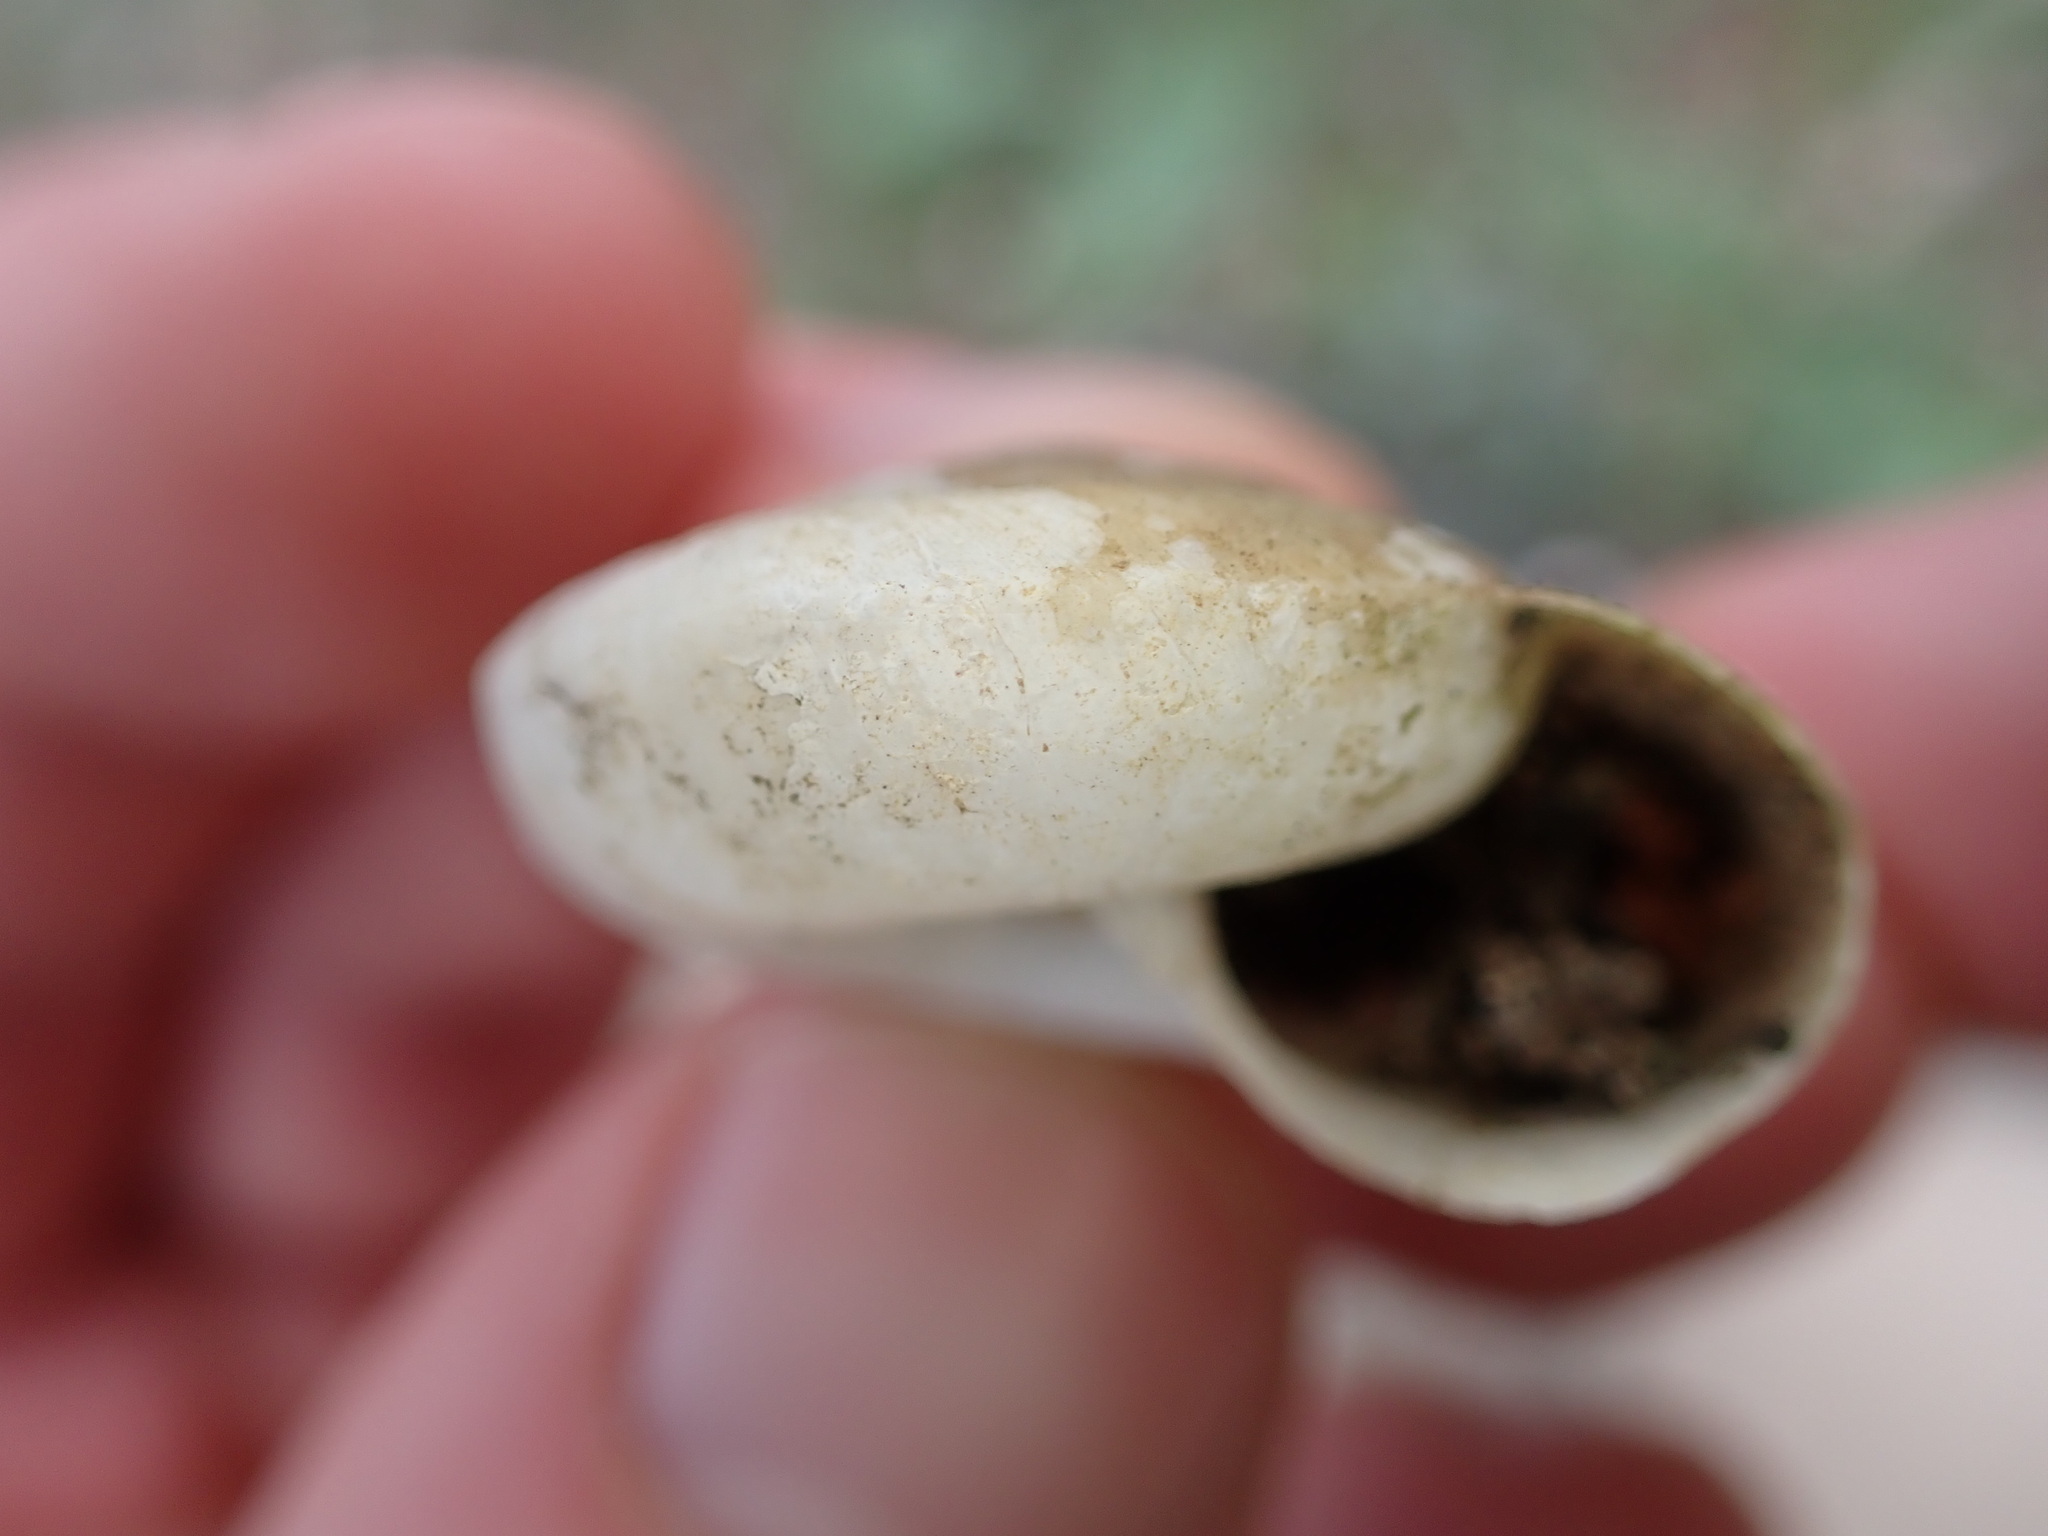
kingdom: Animalia
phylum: Mollusca
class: Gastropoda
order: Stylommatophora
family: Zonitidae
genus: Zonites
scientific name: Zonites algirus
